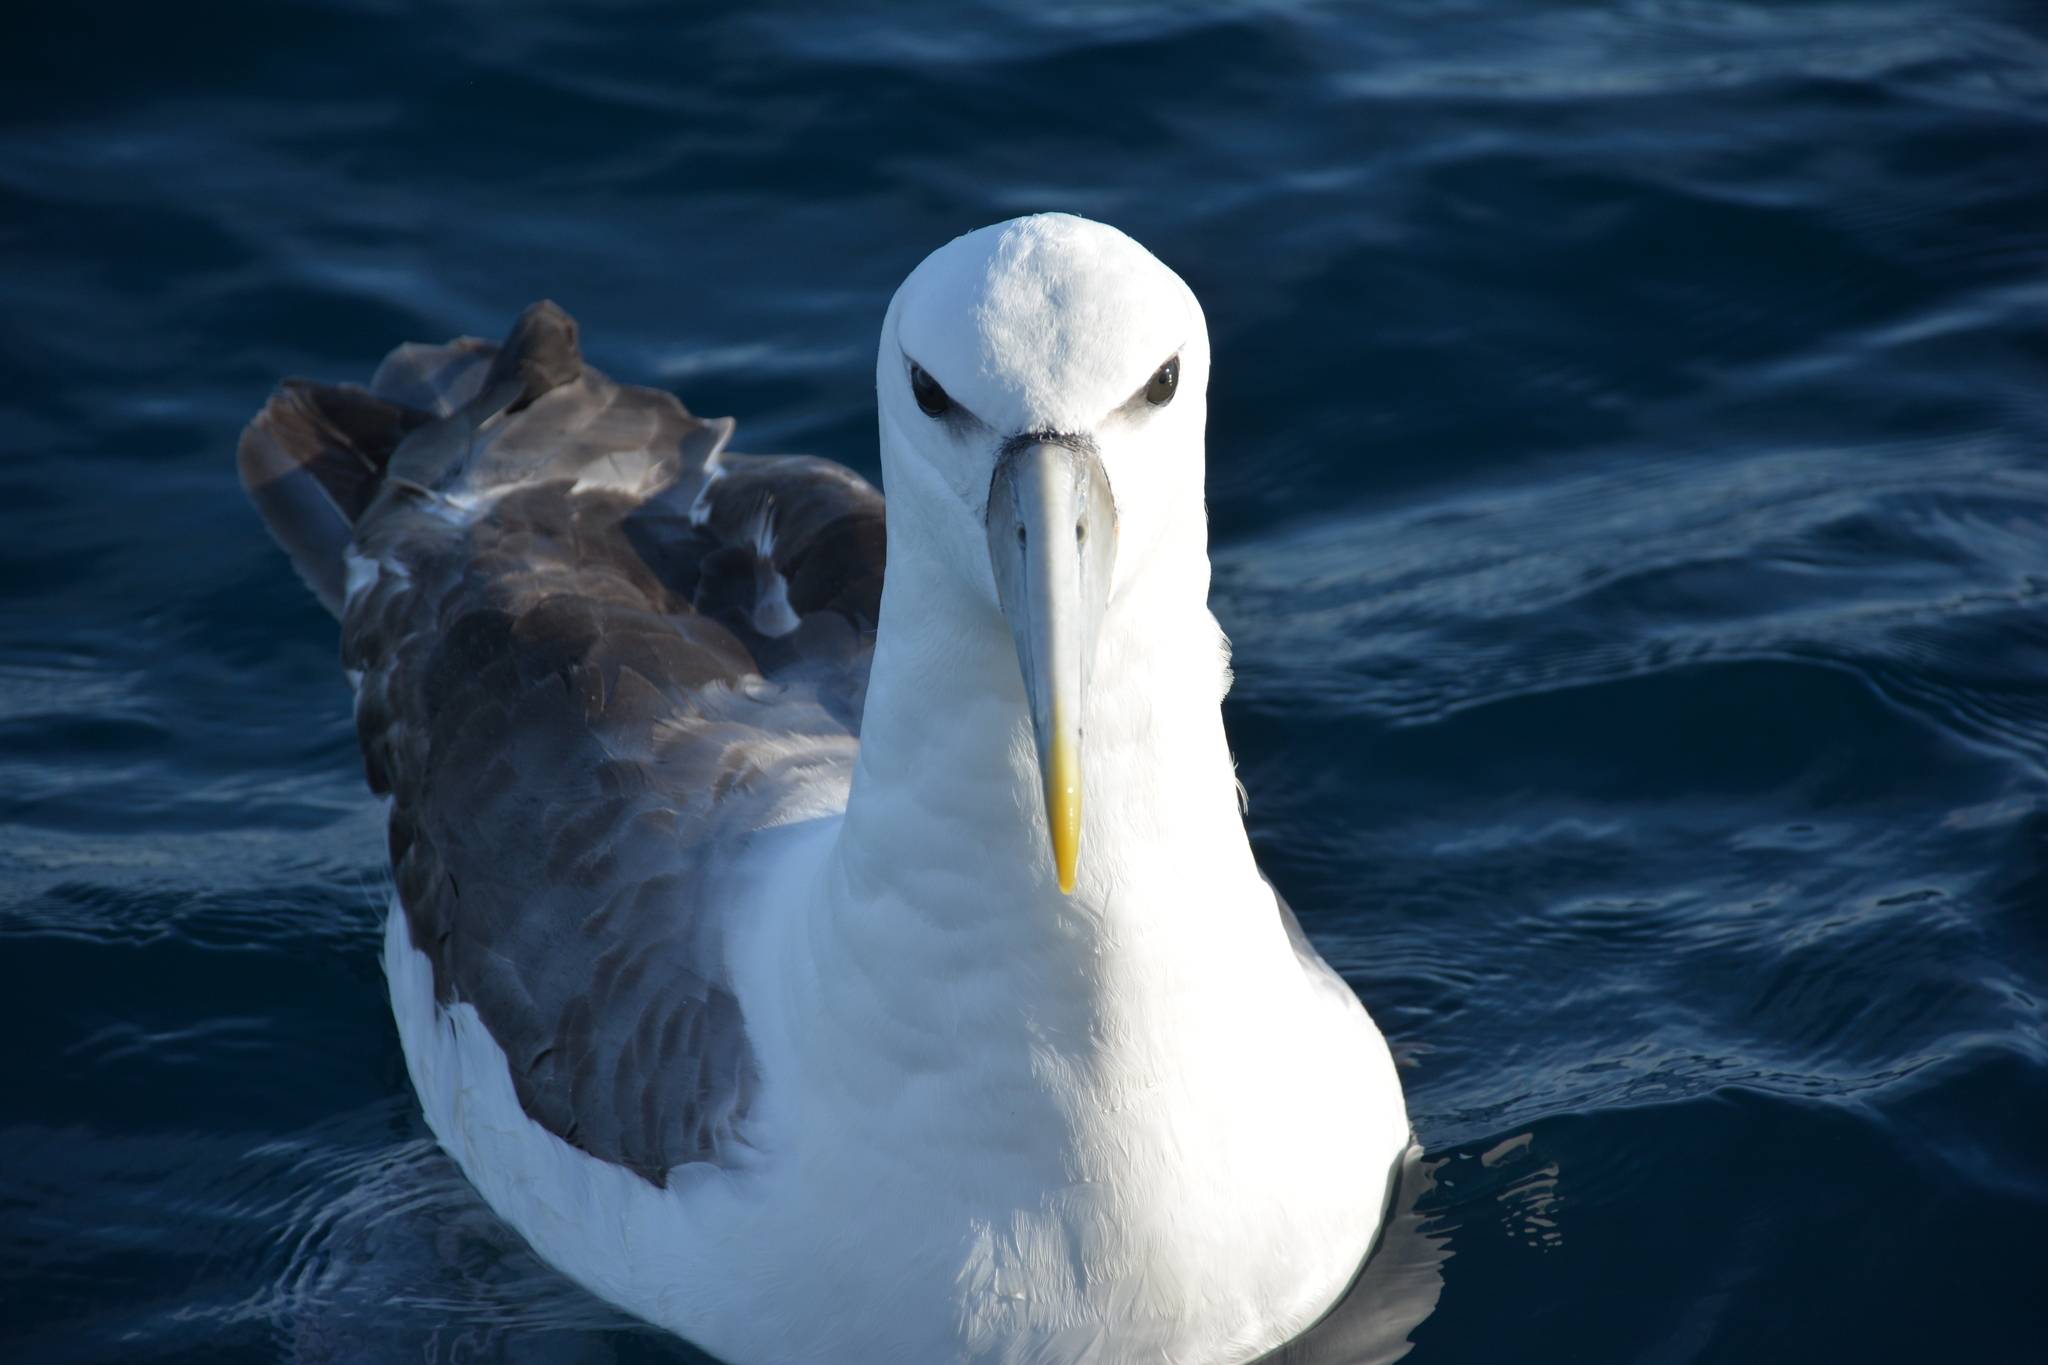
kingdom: Animalia
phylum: Chordata
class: Aves
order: Procellariiformes
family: Diomedeidae
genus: Thalassarche
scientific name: Thalassarche cauta
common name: Shy albatross
